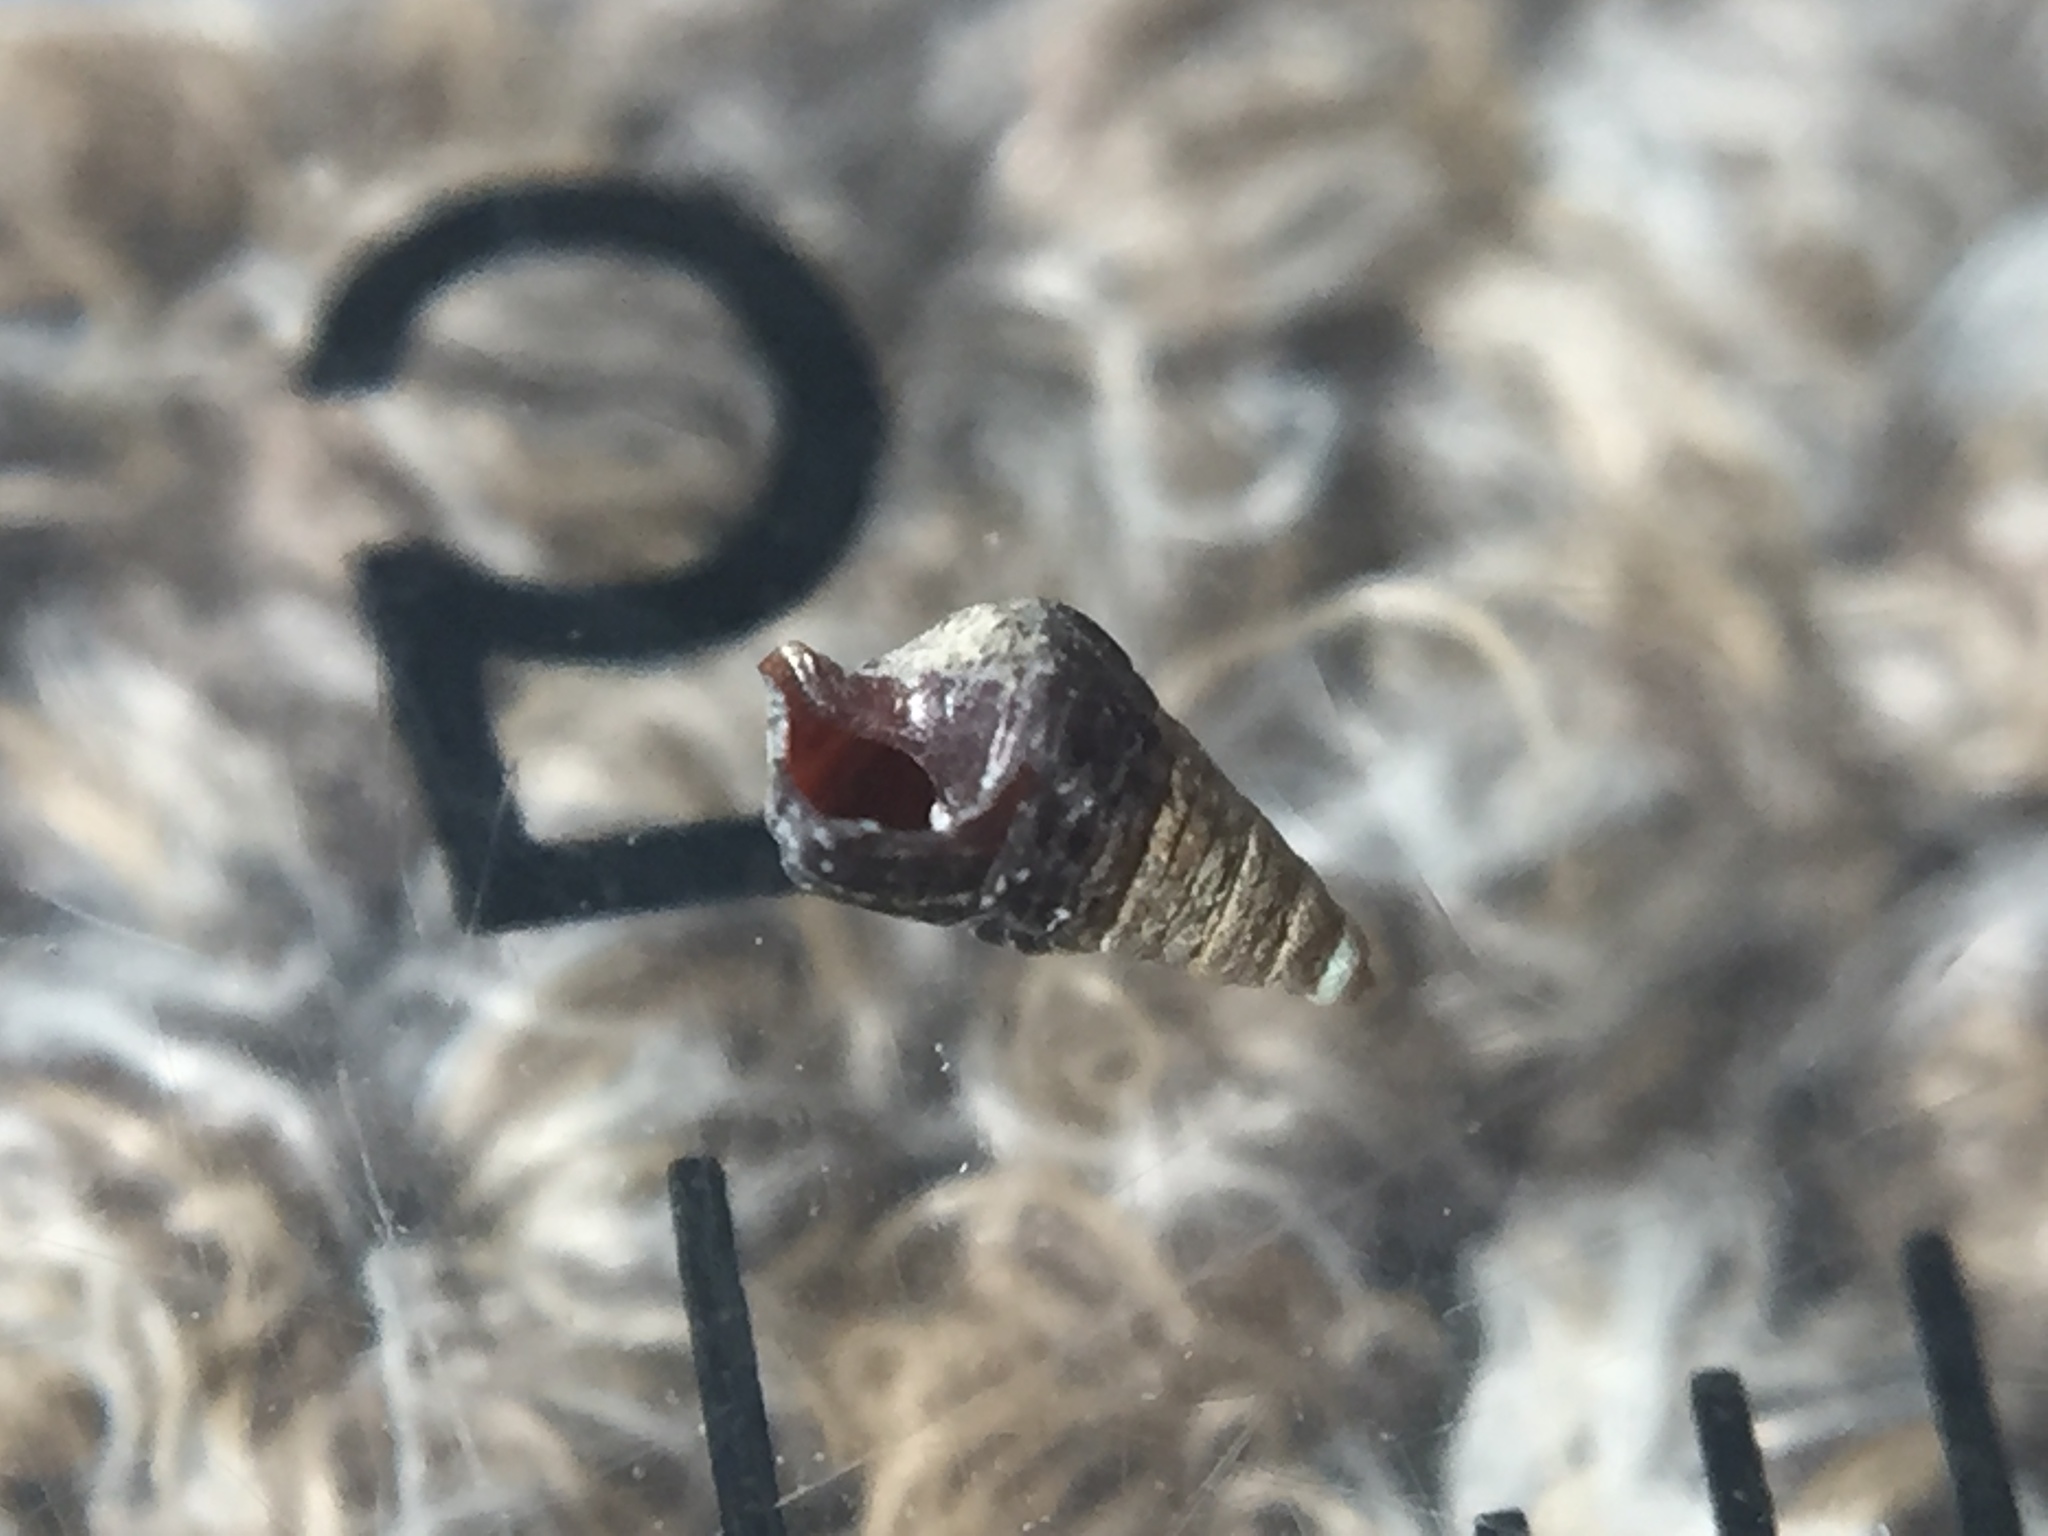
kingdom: Animalia
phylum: Mollusca
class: Gastropoda
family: Batillariidae
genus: Zeacumantus
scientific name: Zeacumantus subcarinatus
